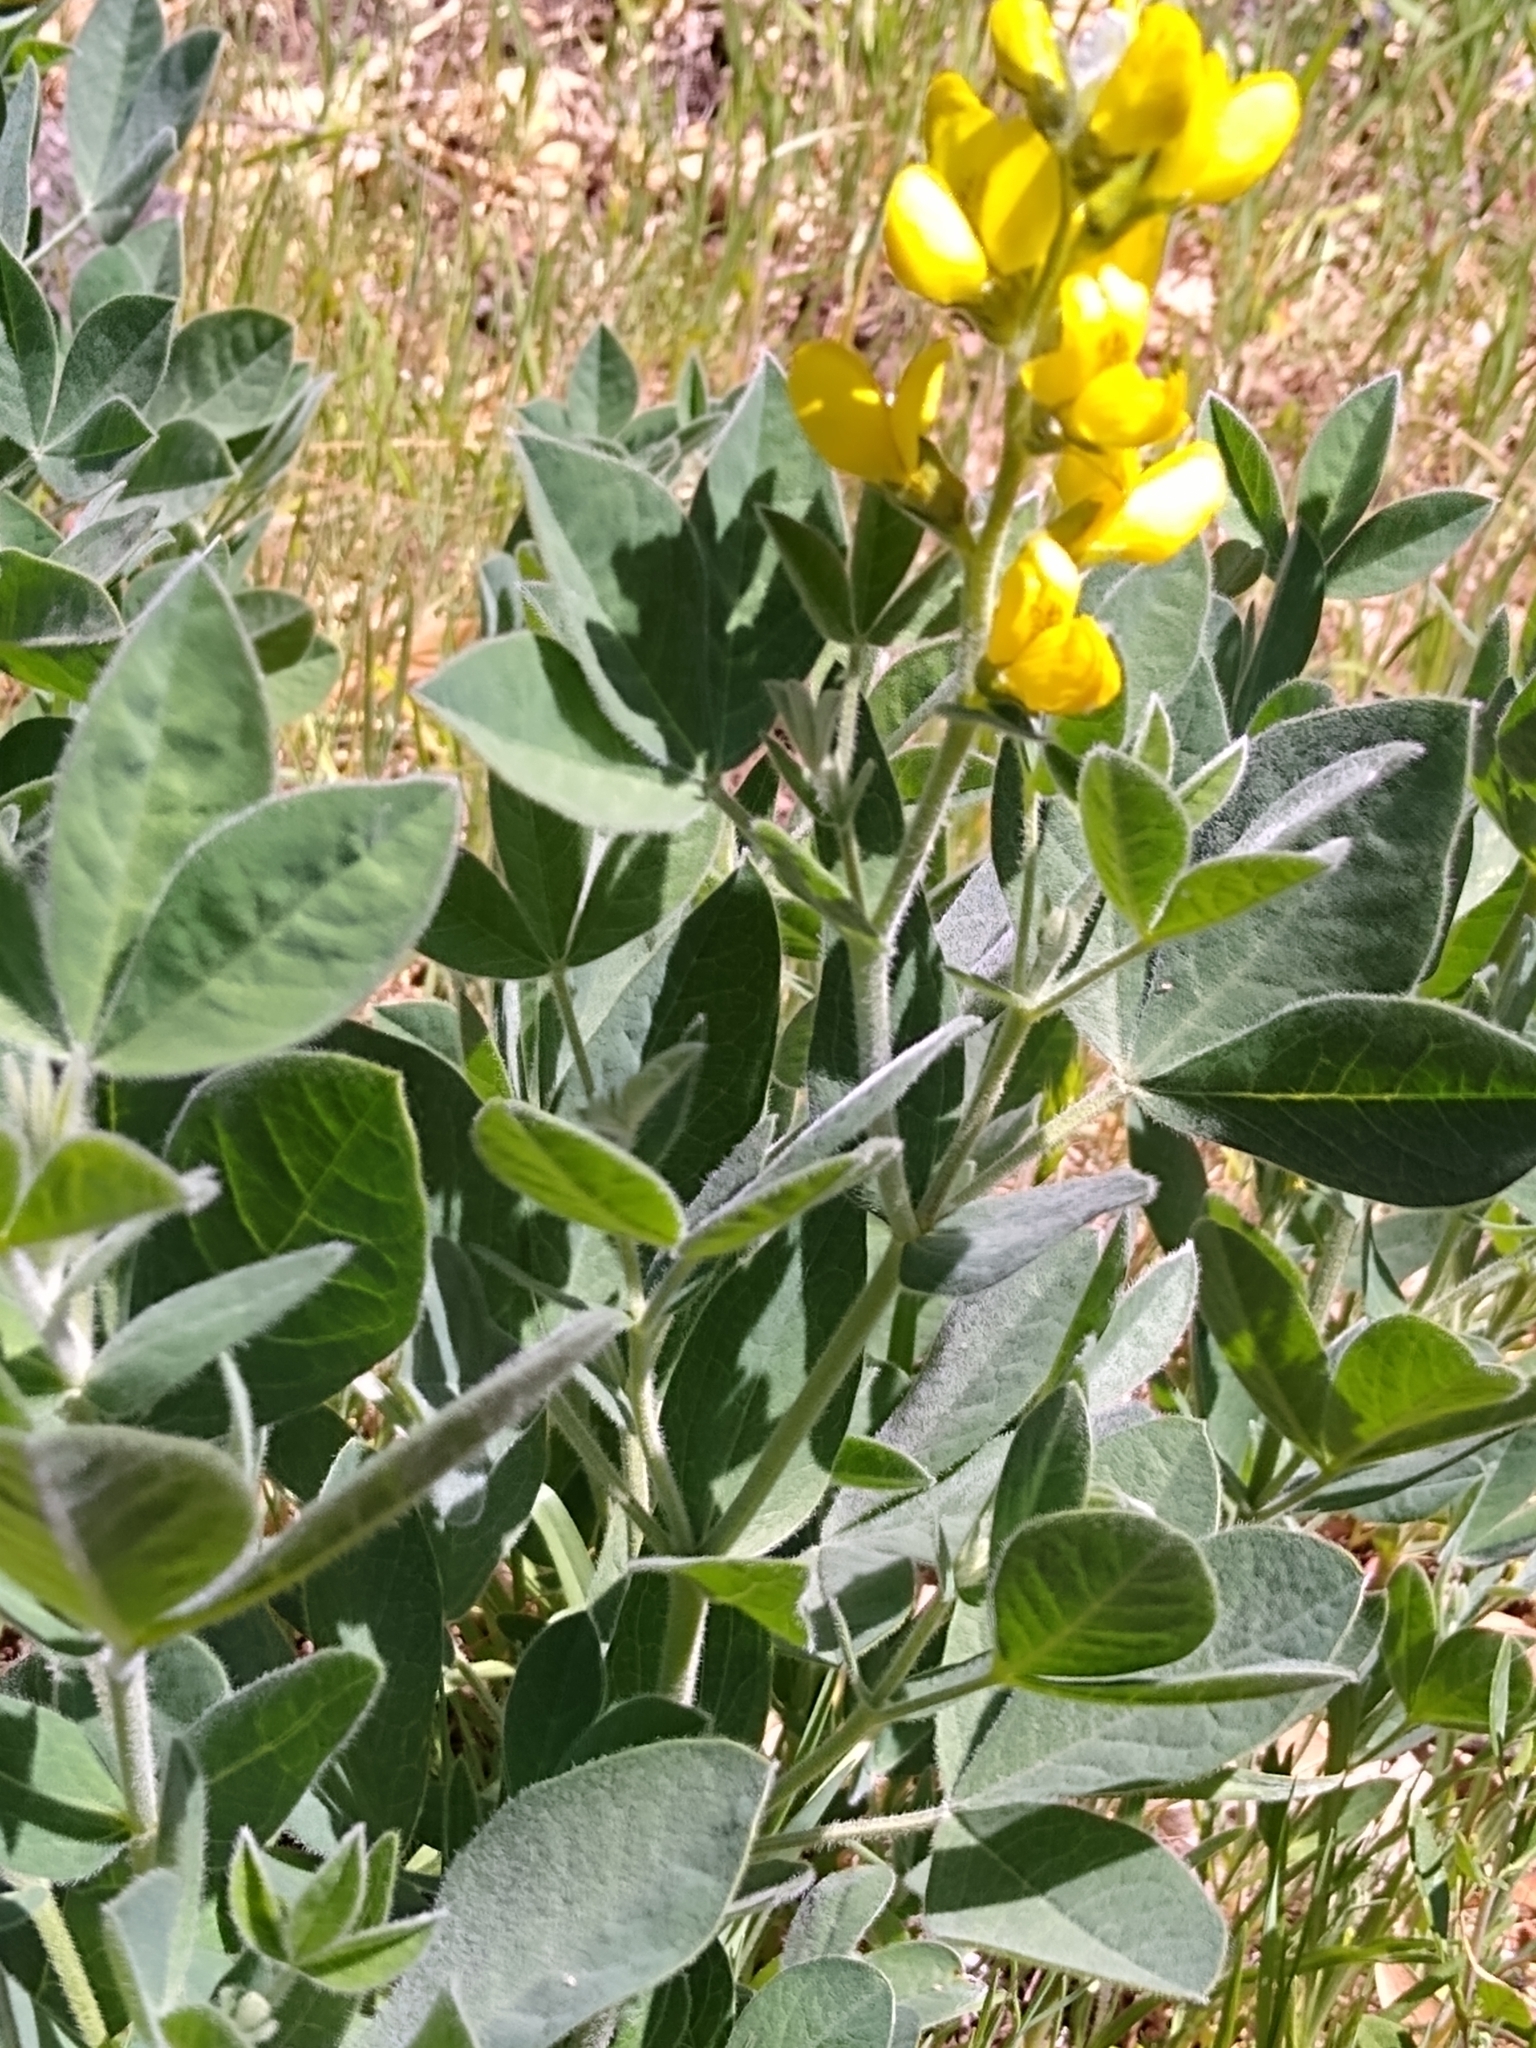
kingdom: Plantae
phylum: Tracheophyta
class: Magnoliopsida
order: Fabales
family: Fabaceae
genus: Thermopsis
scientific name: Thermopsis californica
